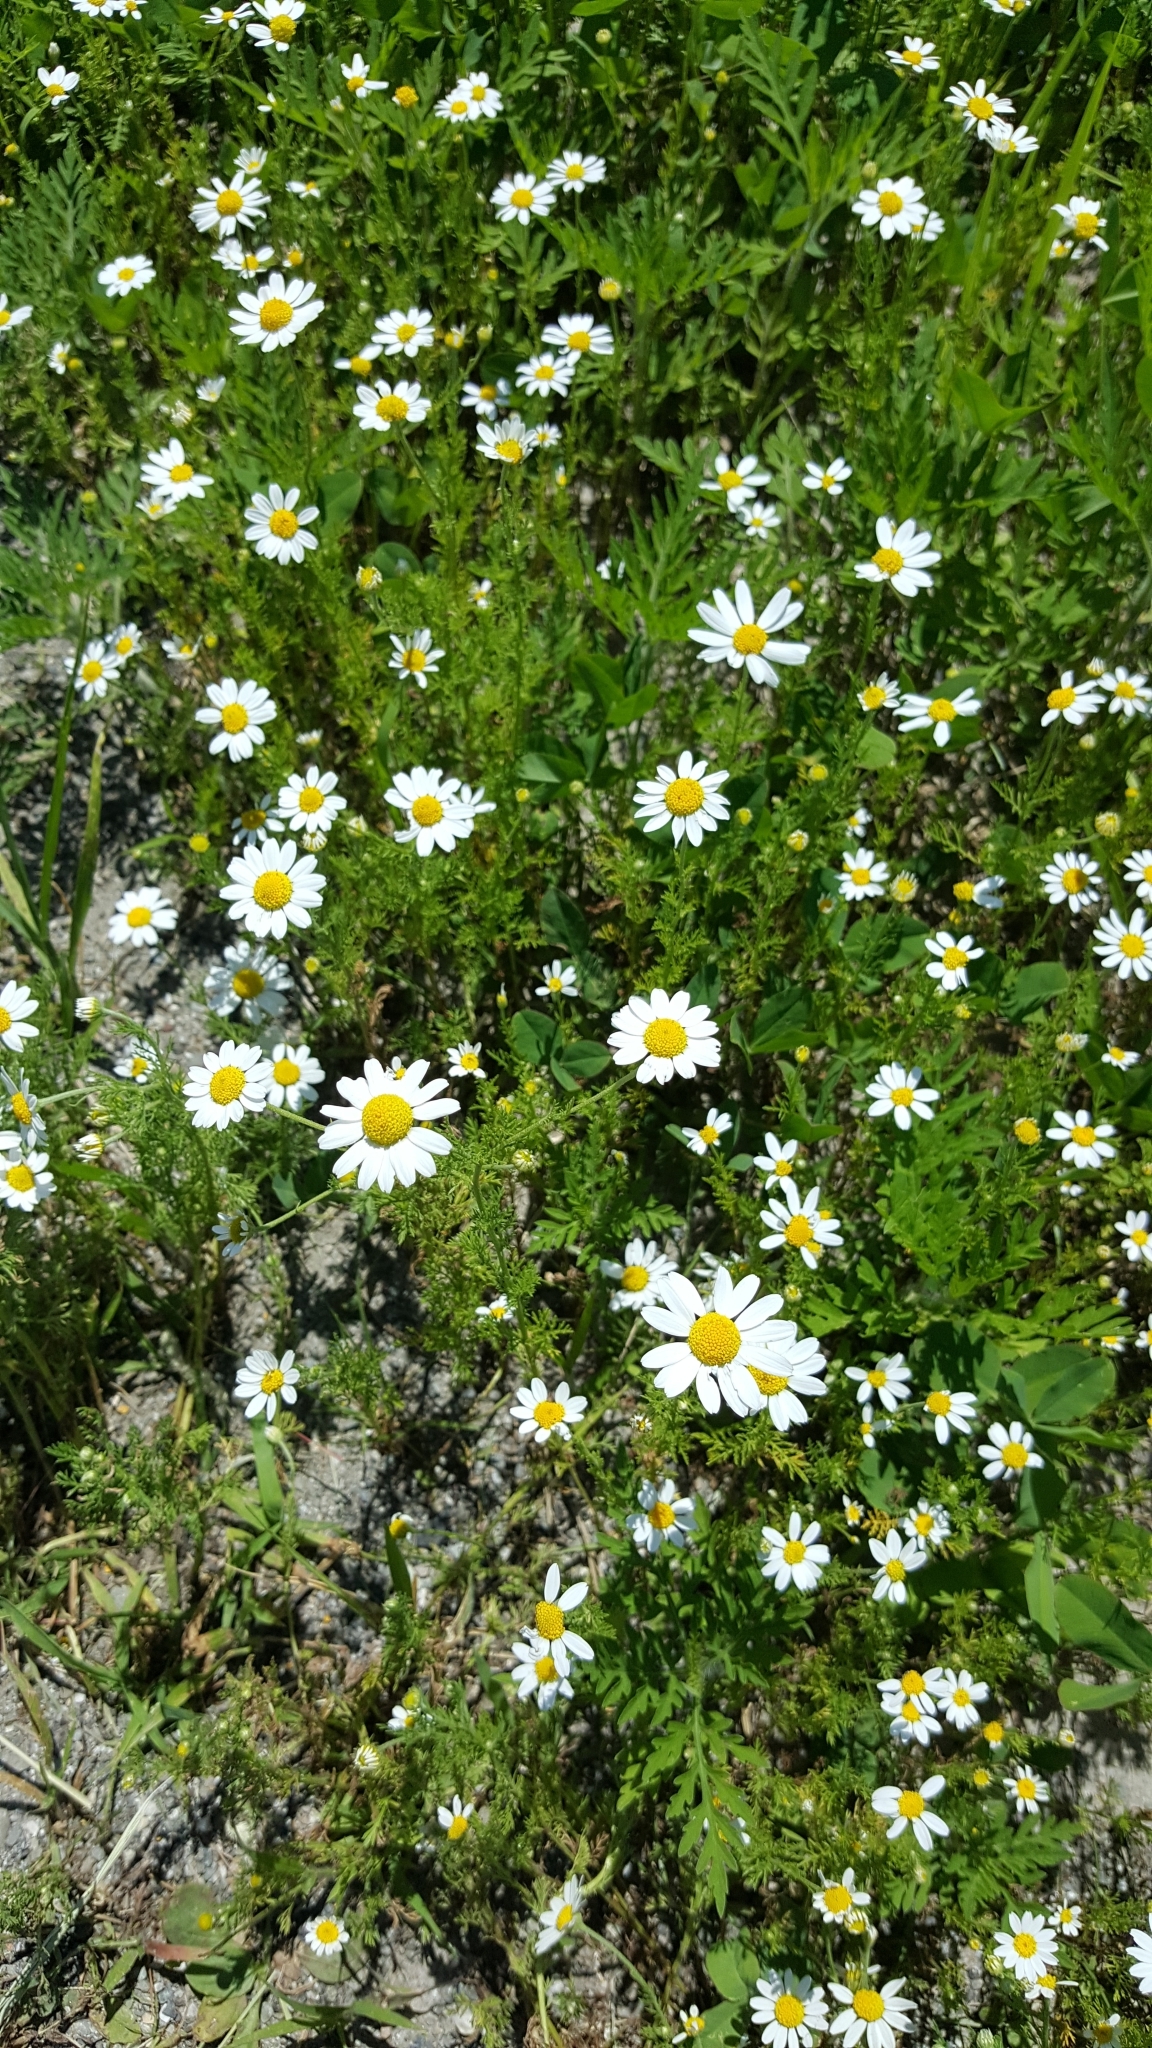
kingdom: Plantae
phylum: Tracheophyta
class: Magnoliopsida
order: Asterales
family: Asteraceae
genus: Anthemis
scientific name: Anthemis cotula
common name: Stinking chamomile
